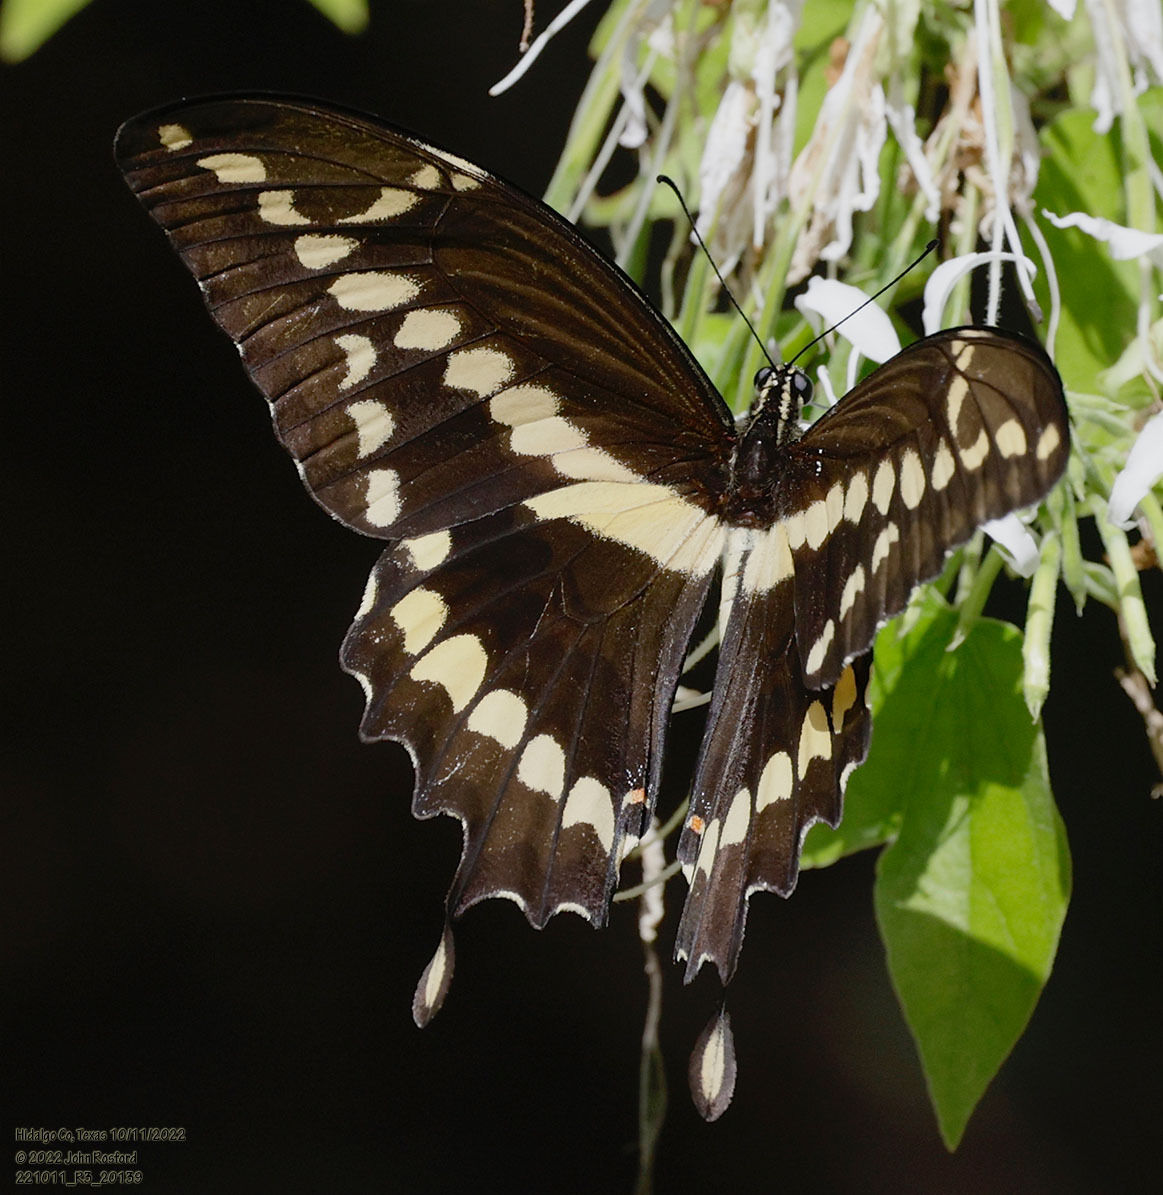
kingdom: Animalia
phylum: Arthropoda
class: Insecta
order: Lepidoptera
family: Papilionidae
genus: Papilio
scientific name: Papilio rumiko
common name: Western giant swallowtail
